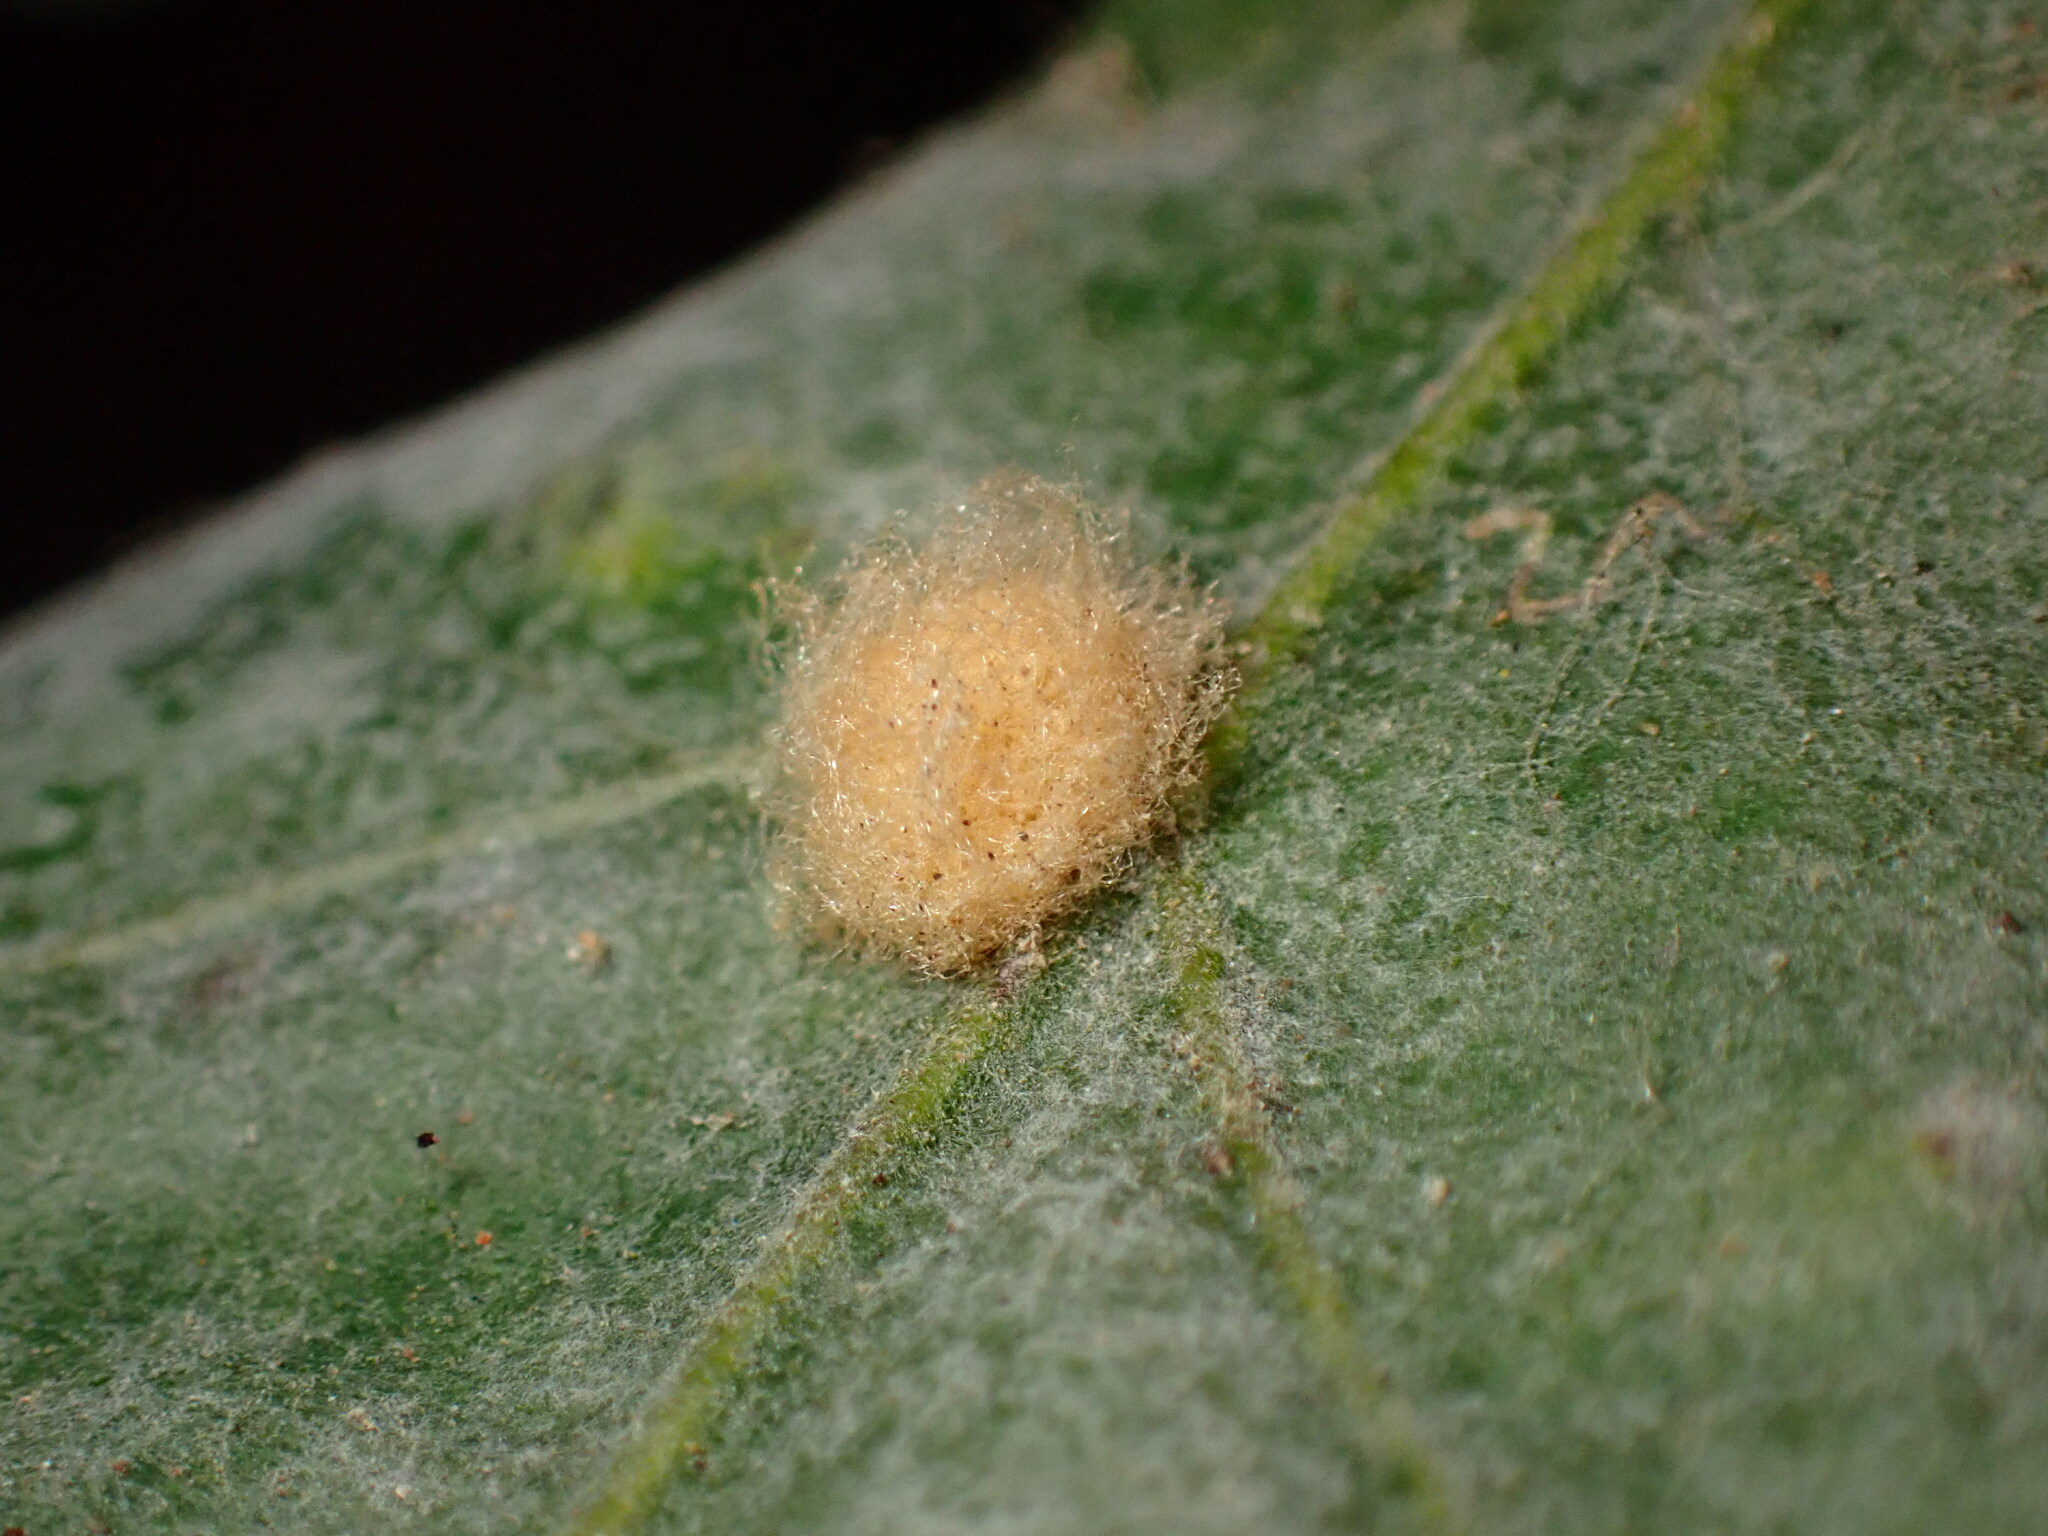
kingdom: Animalia
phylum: Arthropoda
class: Insecta
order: Hymenoptera
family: Cynipidae
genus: Andricus
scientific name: Andricus Druon fullawayi
